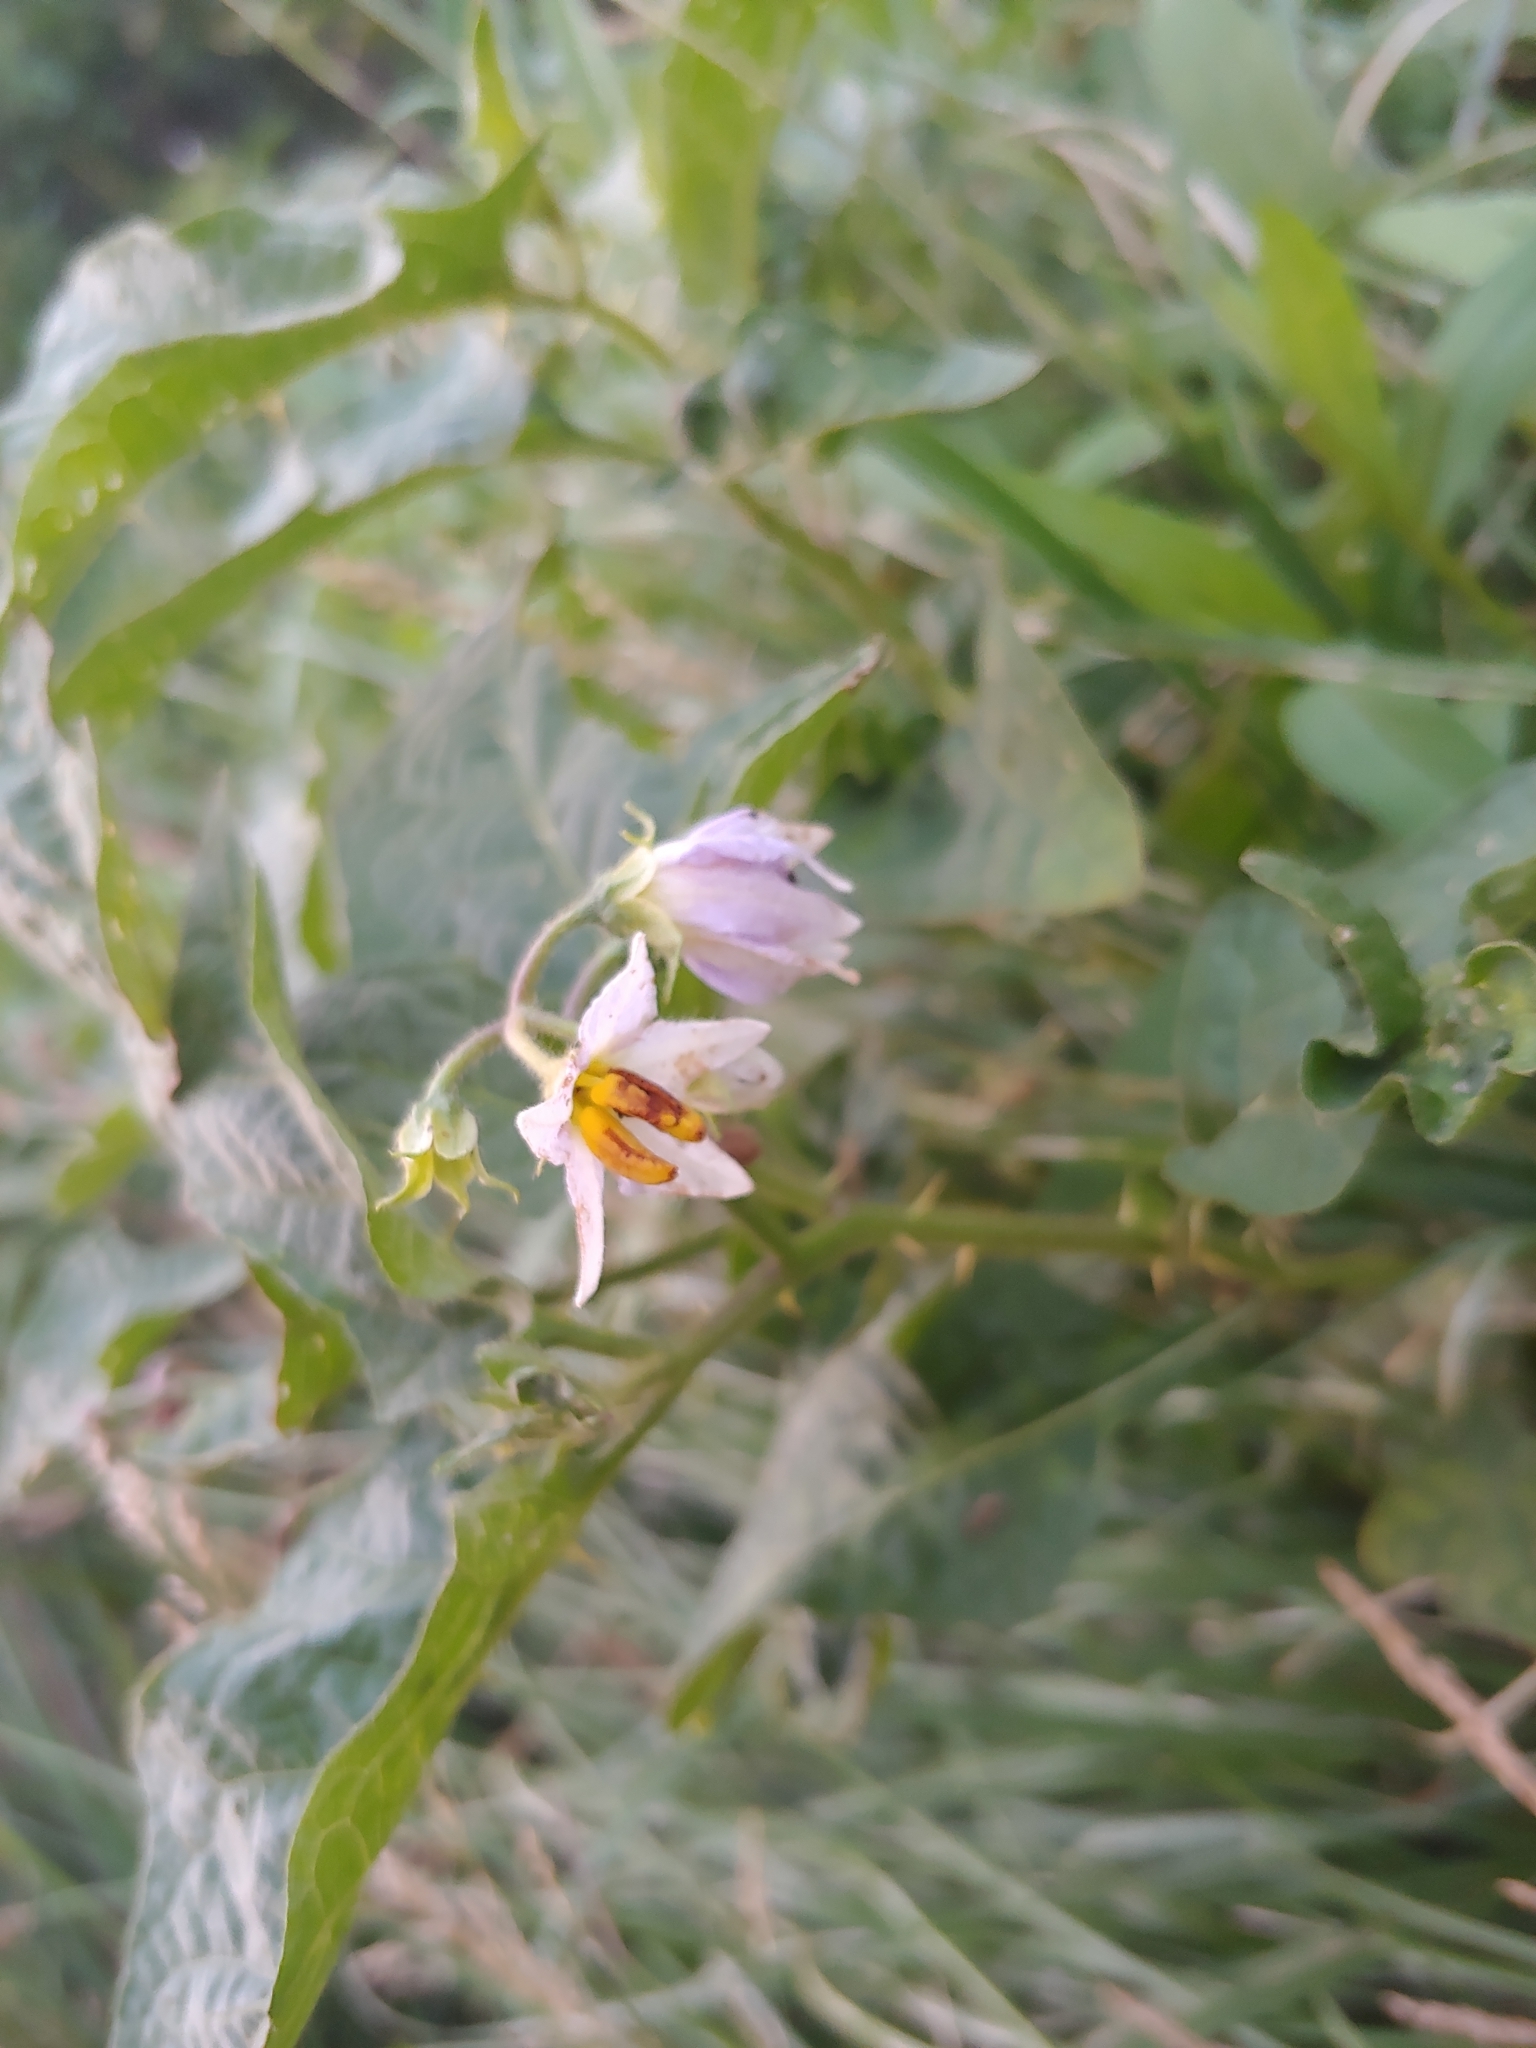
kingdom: Plantae
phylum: Tracheophyta
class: Magnoliopsida
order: Solanales
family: Solanaceae
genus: Solanum
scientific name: Solanum carolinense
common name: Horse-nettle
